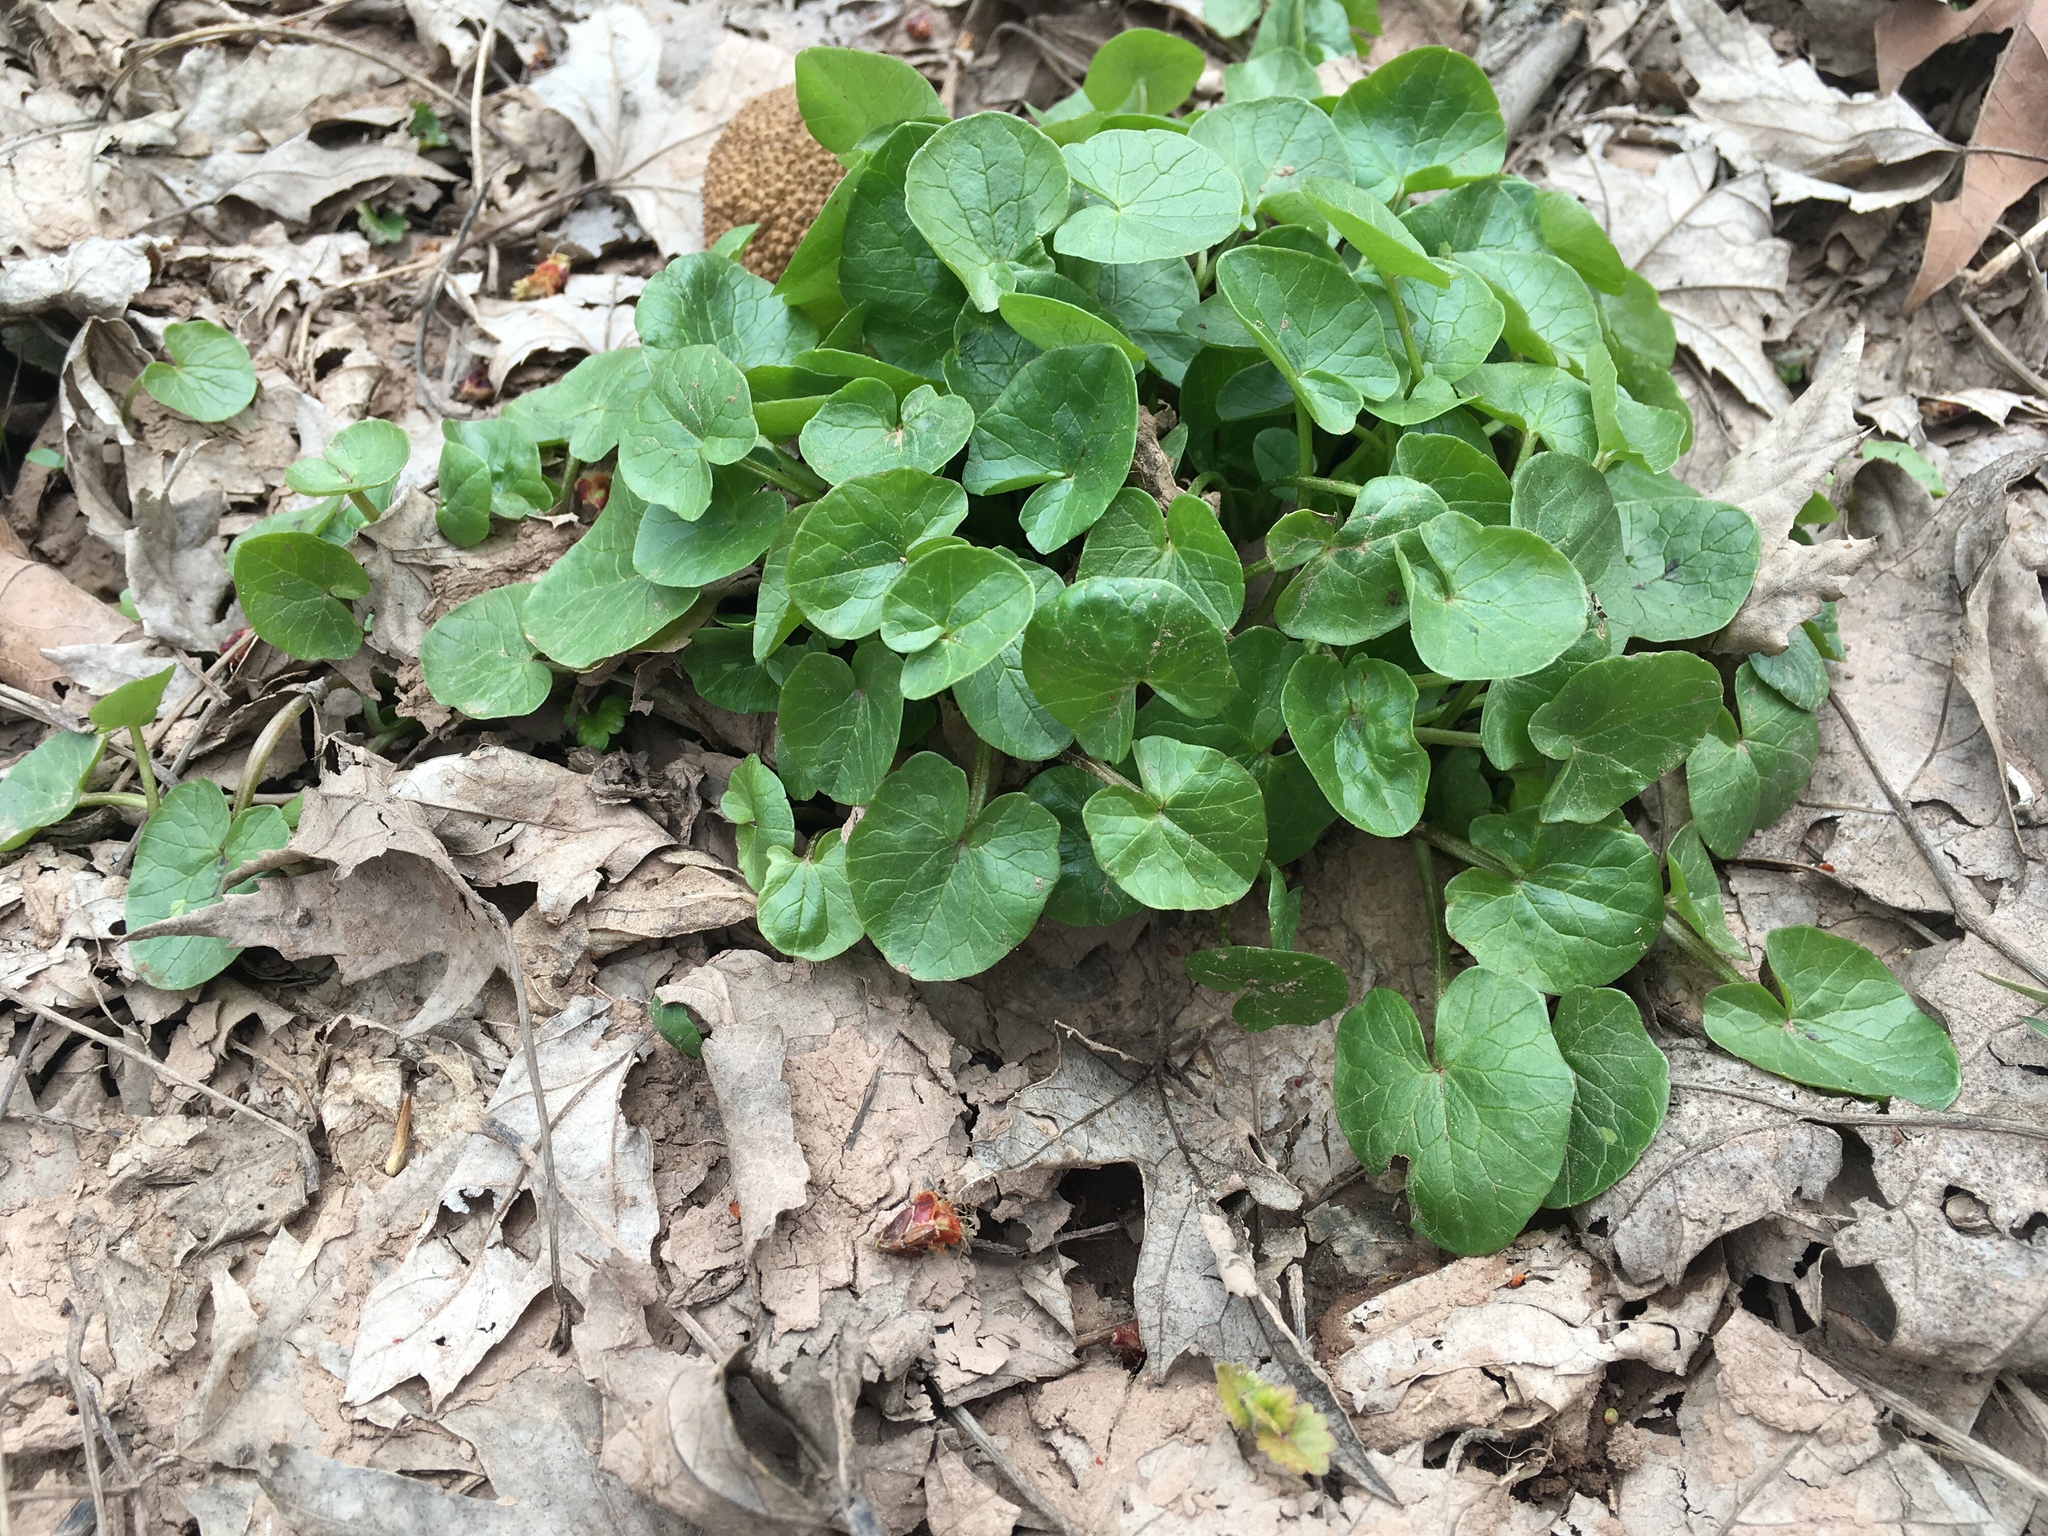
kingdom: Plantae
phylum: Tracheophyta
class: Magnoliopsida
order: Ranunculales
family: Ranunculaceae
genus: Ficaria
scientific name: Ficaria verna
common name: Lesser celandine
